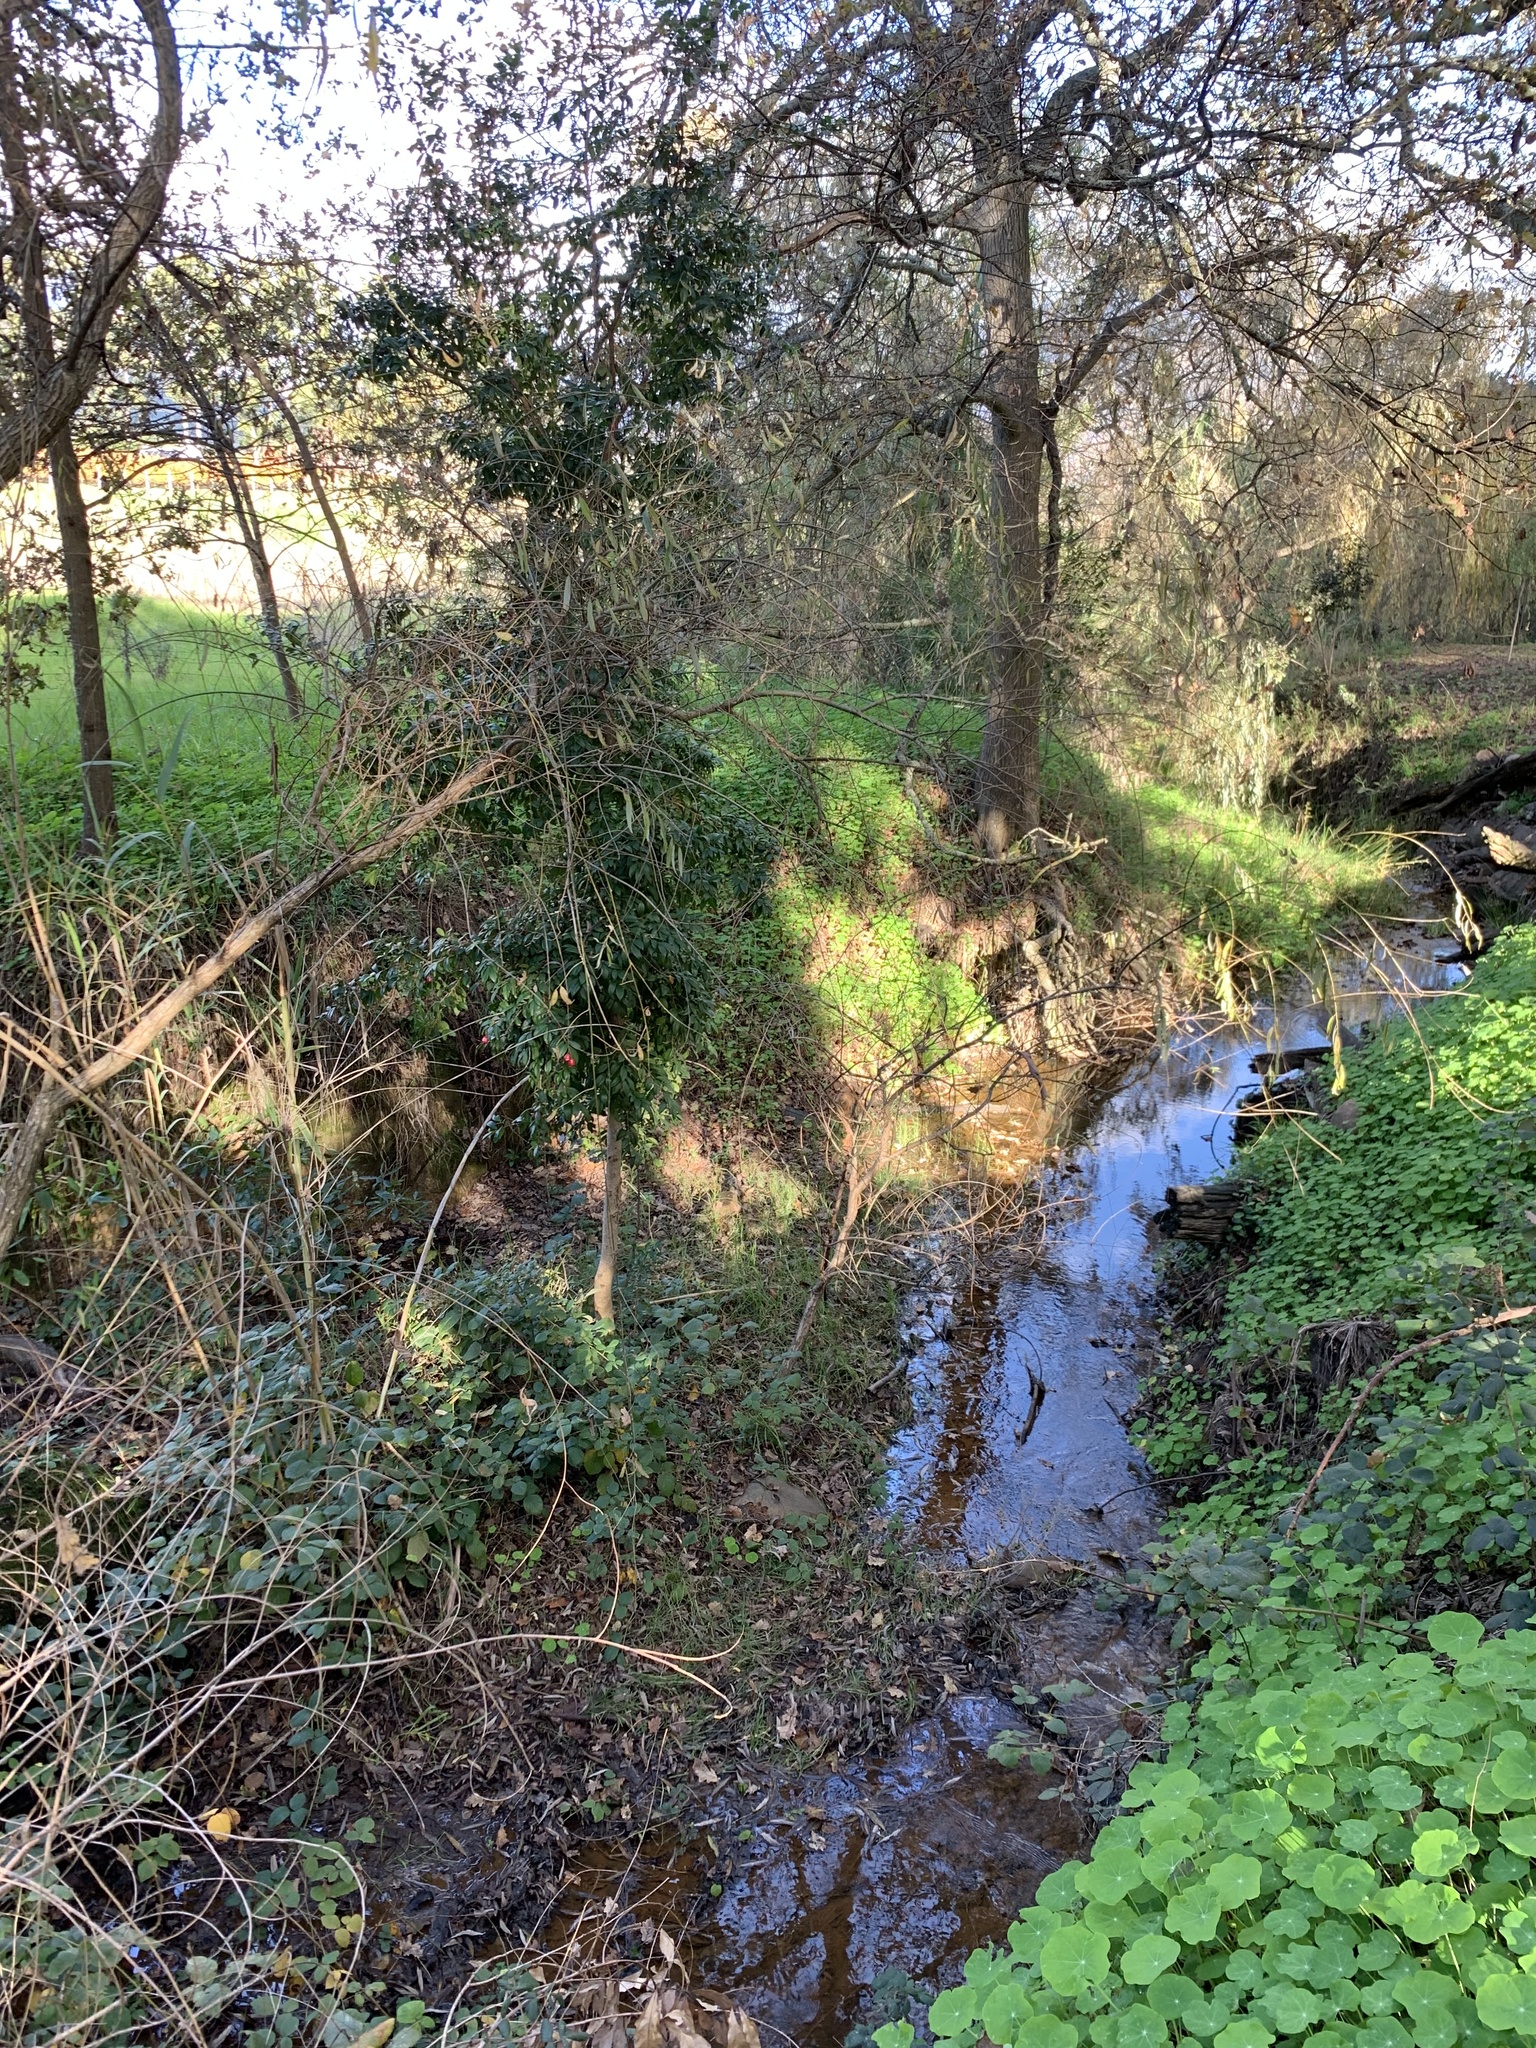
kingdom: Plantae
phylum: Tracheophyta
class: Magnoliopsida
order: Myrtales
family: Myrtaceae
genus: Syzygium
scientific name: Syzygium australe
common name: Australian brush-cherry
